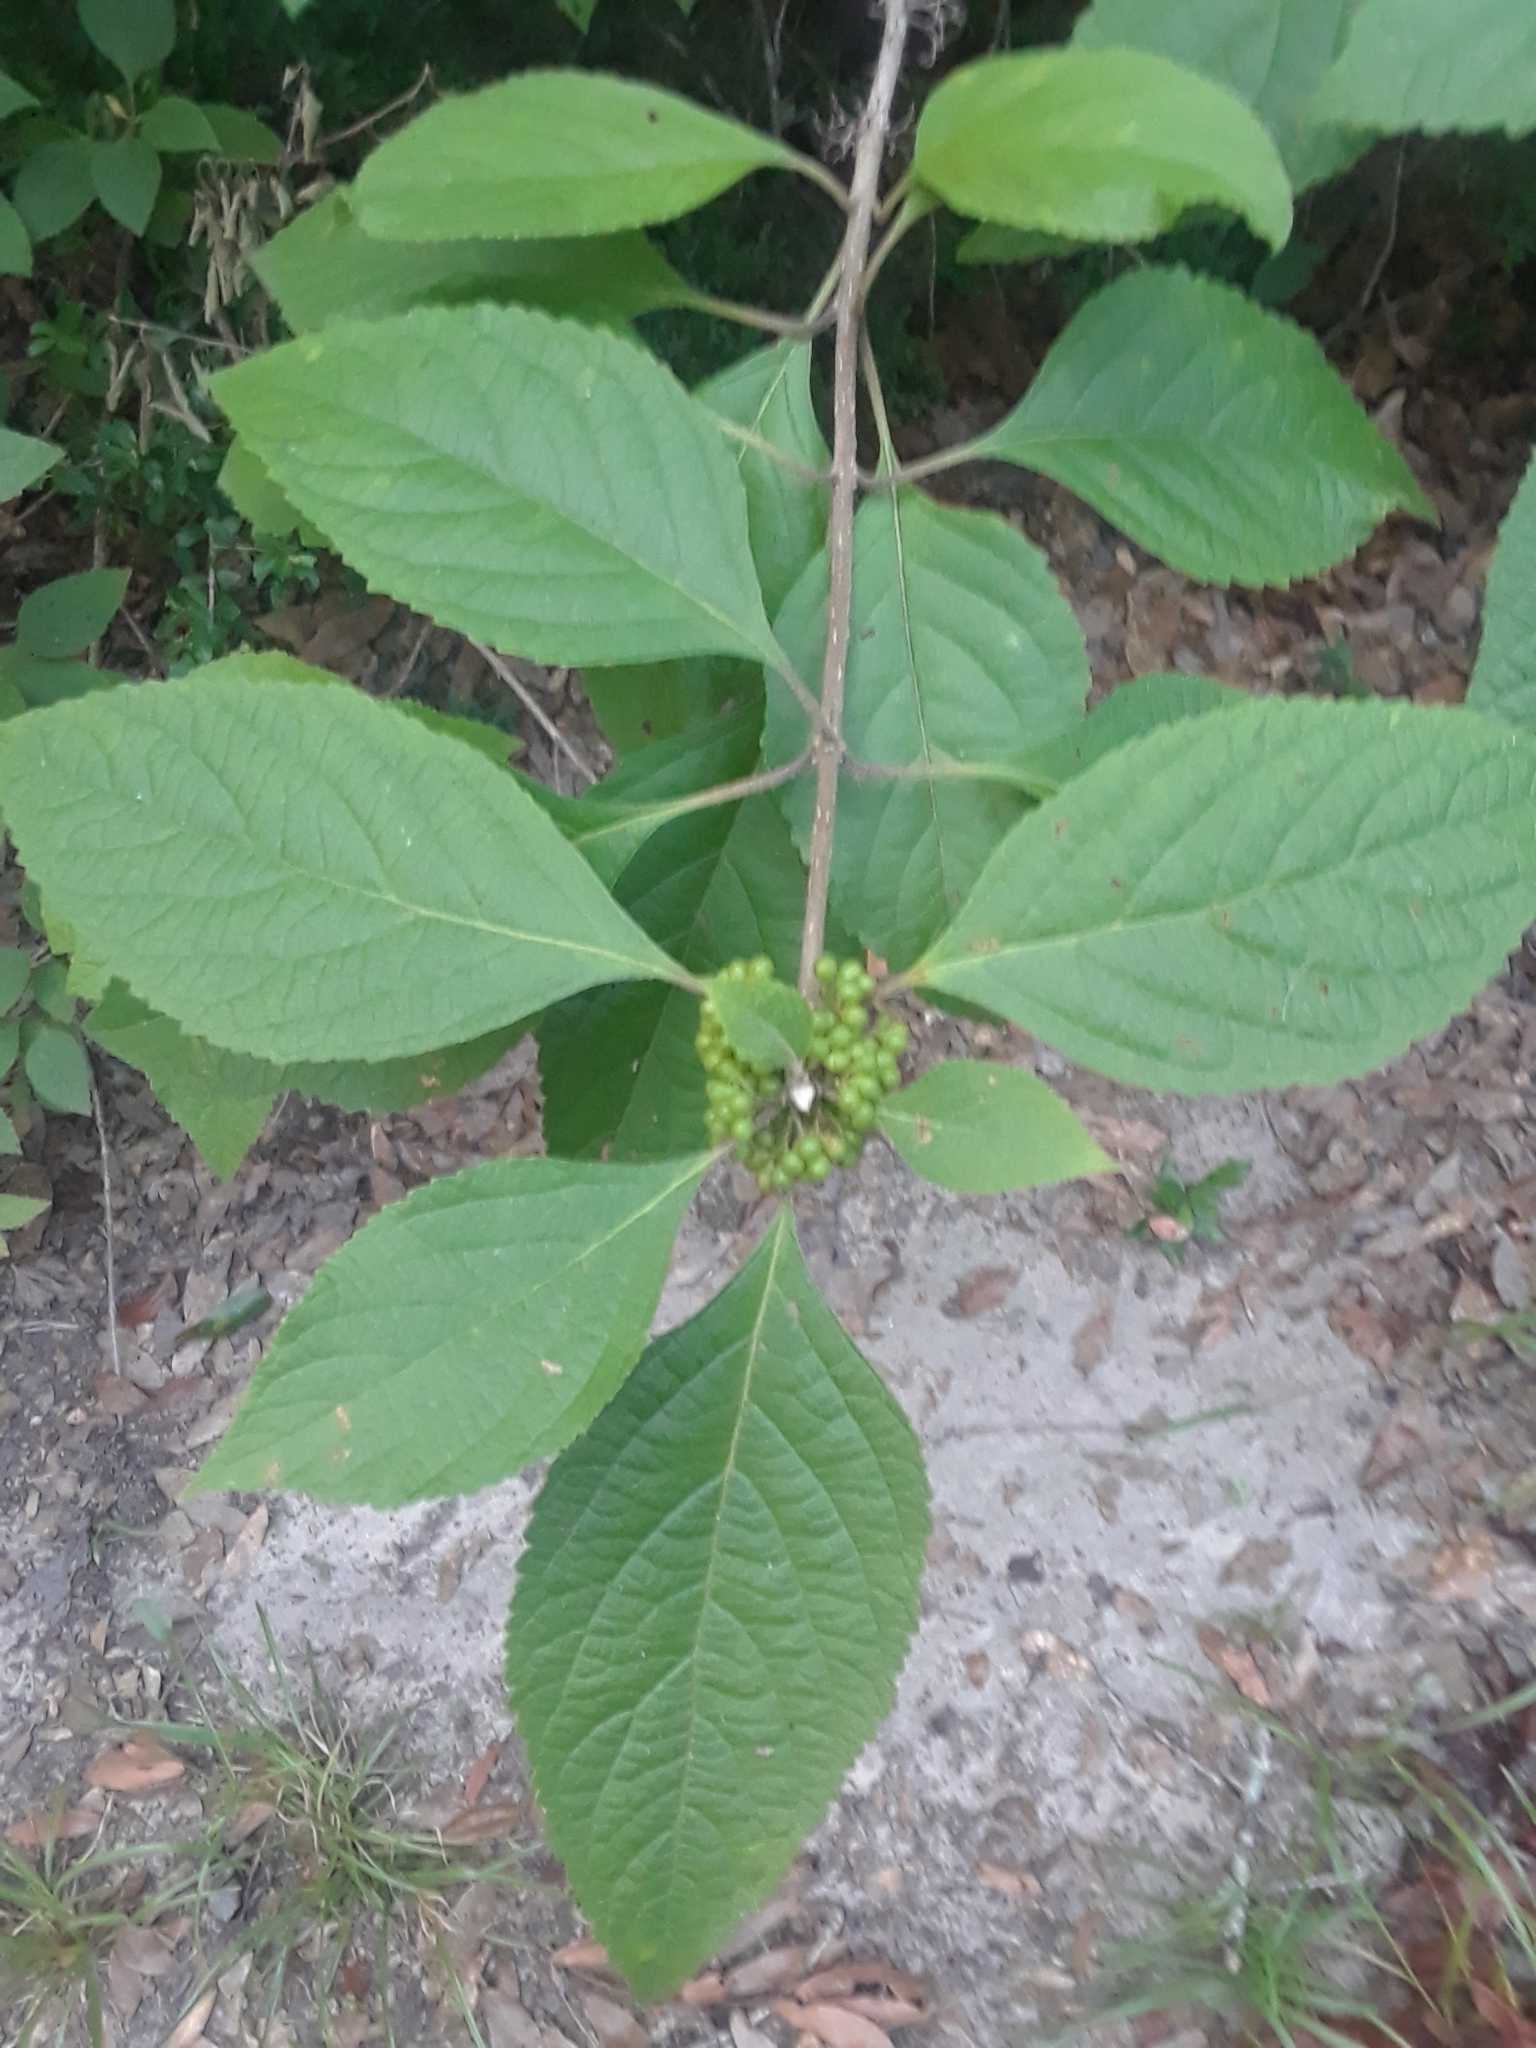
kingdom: Plantae
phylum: Tracheophyta
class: Magnoliopsida
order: Lamiales
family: Lamiaceae
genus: Callicarpa
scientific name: Callicarpa americana
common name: American beautyberry
